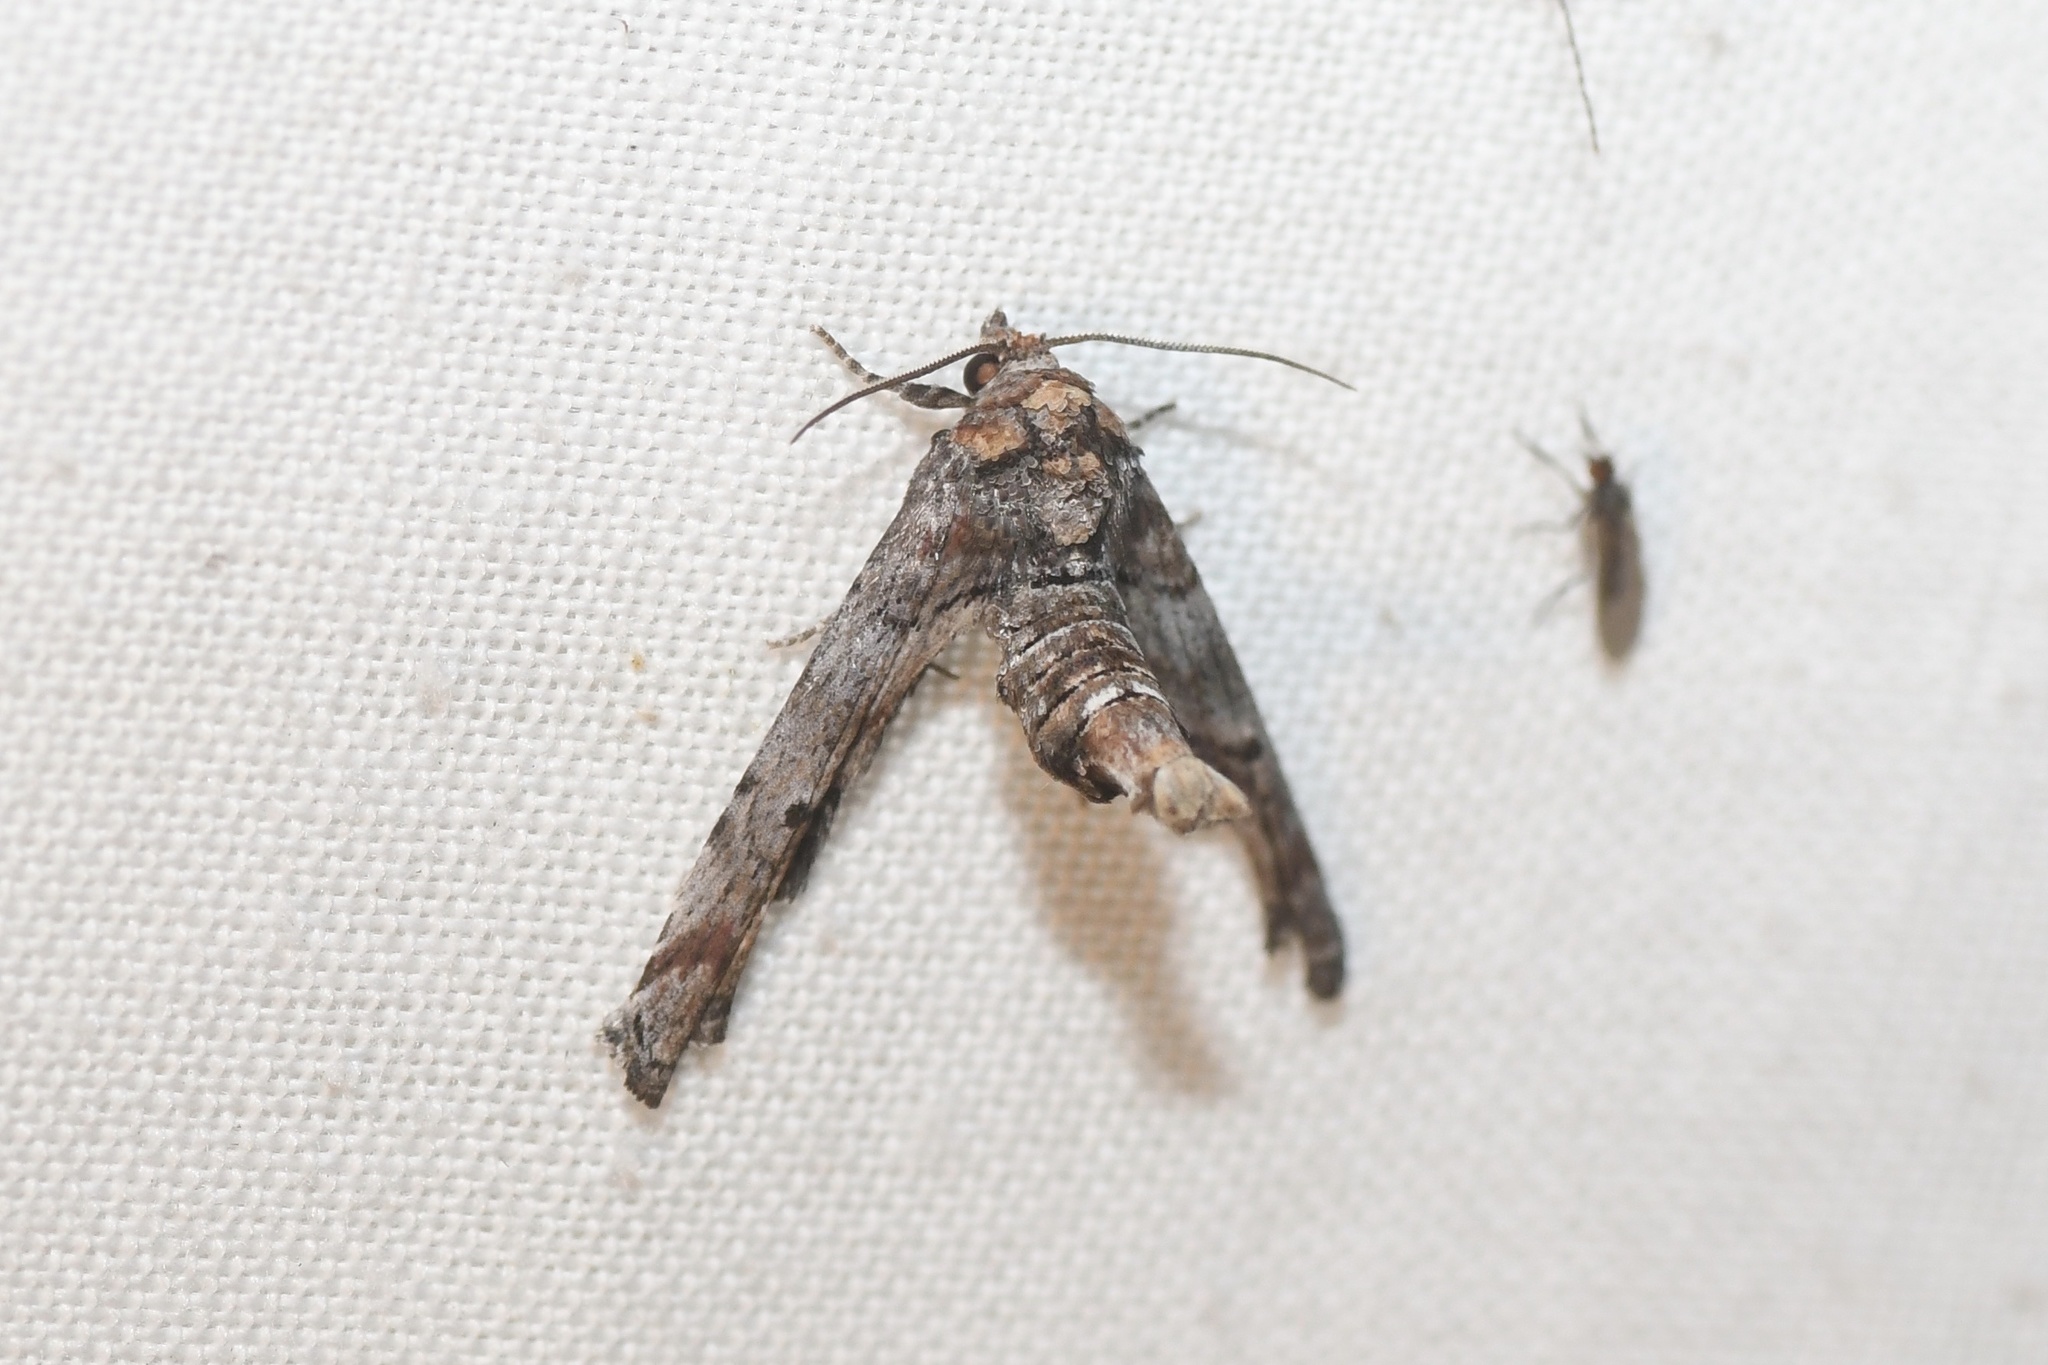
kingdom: Animalia
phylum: Arthropoda
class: Insecta
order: Lepidoptera
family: Euteliidae
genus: Marathyssa
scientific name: Marathyssa inficita
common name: Dark marathyssa moth
